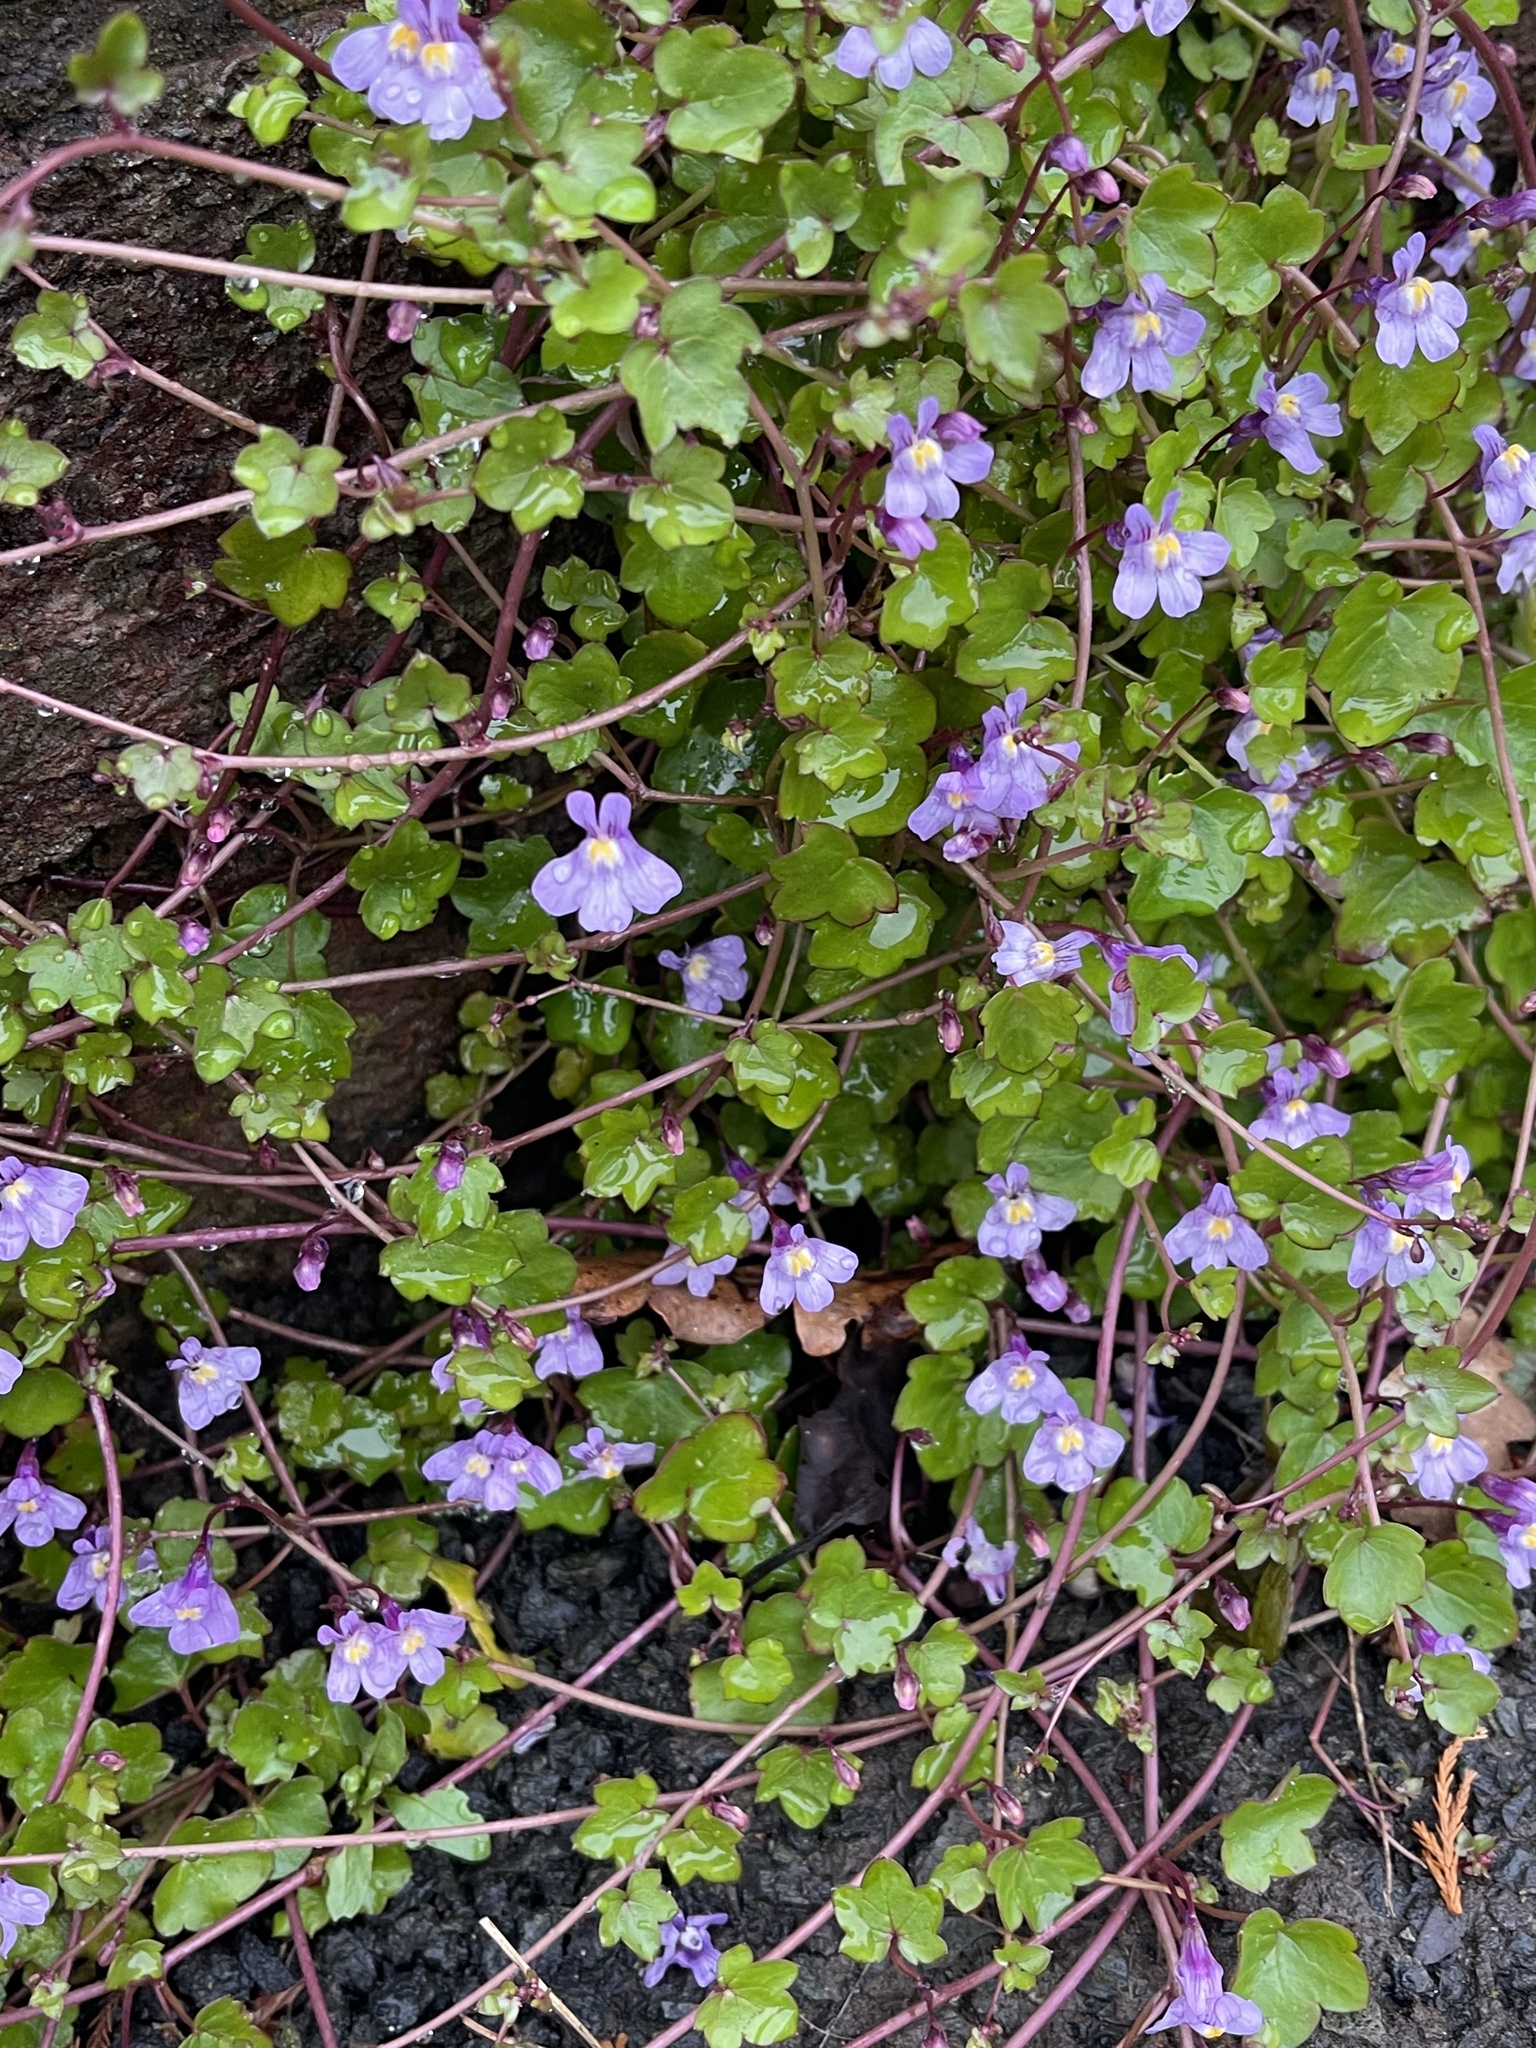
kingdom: Plantae
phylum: Tracheophyta
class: Magnoliopsida
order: Lamiales
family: Plantaginaceae
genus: Cymbalaria
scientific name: Cymbalaria muralis
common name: Ivy-leaved toadflax
